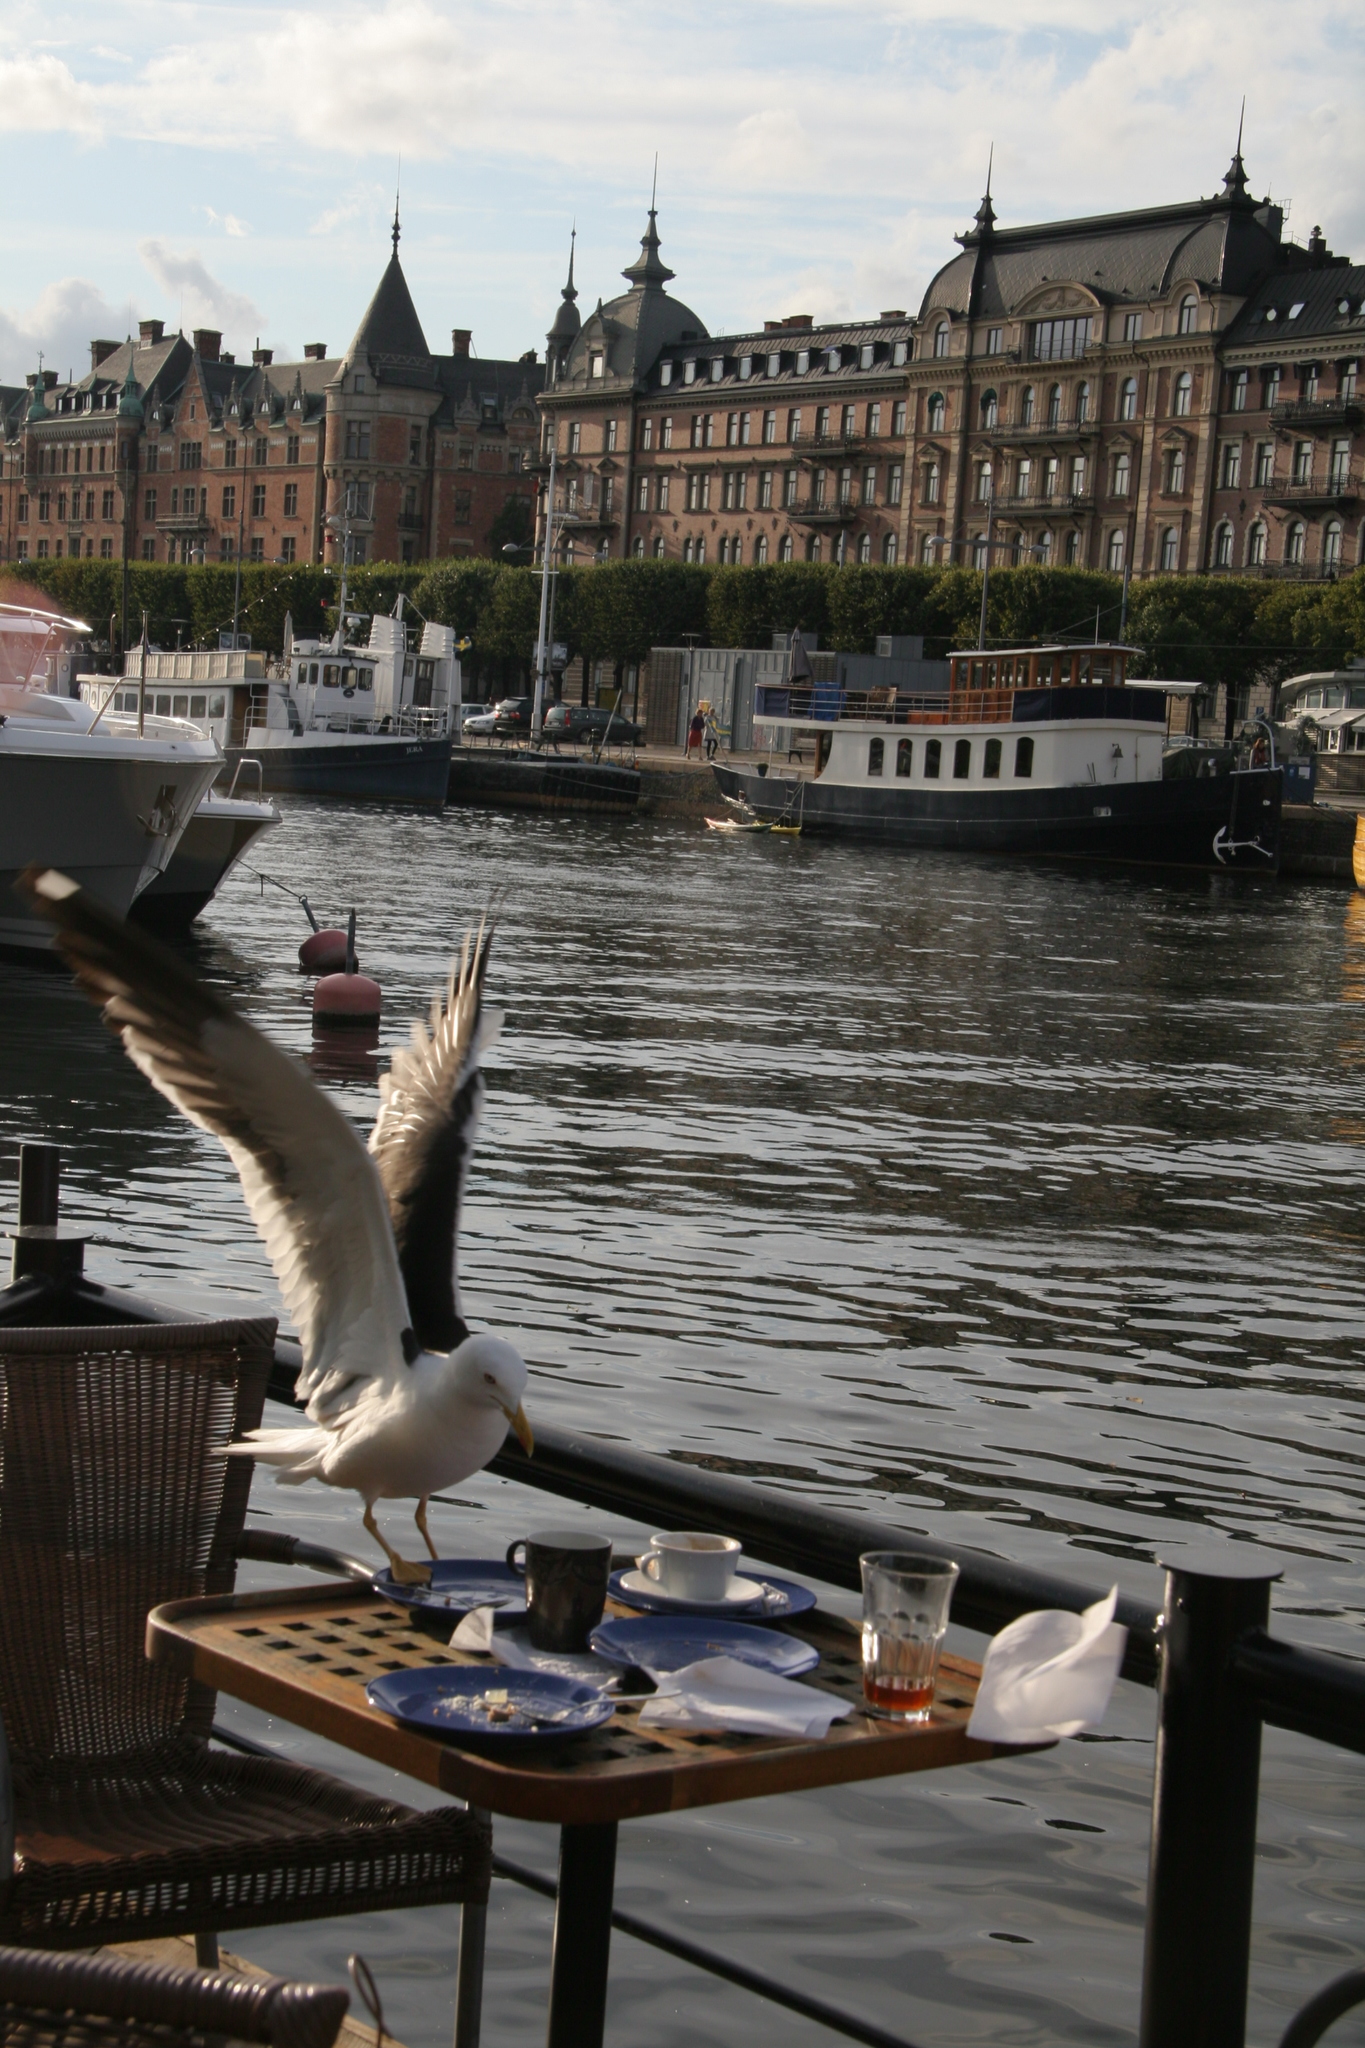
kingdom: Animalia
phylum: Chordata
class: Aves
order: Charadriiformes
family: Laridae
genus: Larus
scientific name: Larus fuscus
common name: Lesser black-backed gull
